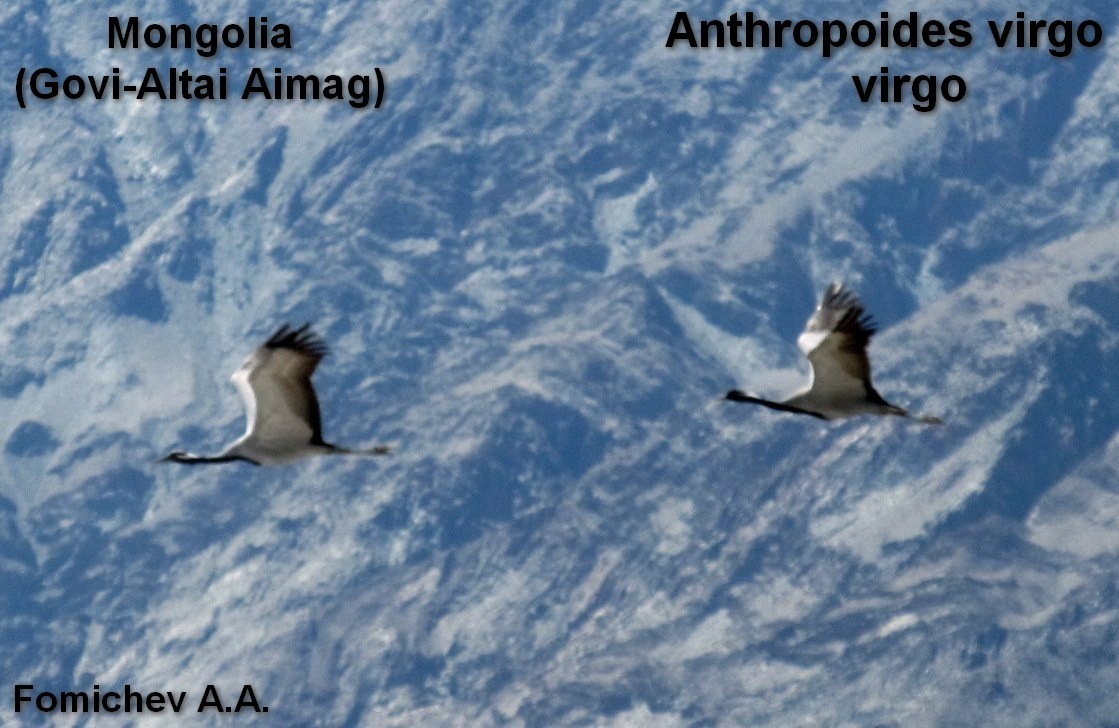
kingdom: Animalia
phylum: Chordata
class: Aves
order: Gruiformes
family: Gruidae
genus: Anthropoides
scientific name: Anthropoides virgo
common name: Demoiselle crane
